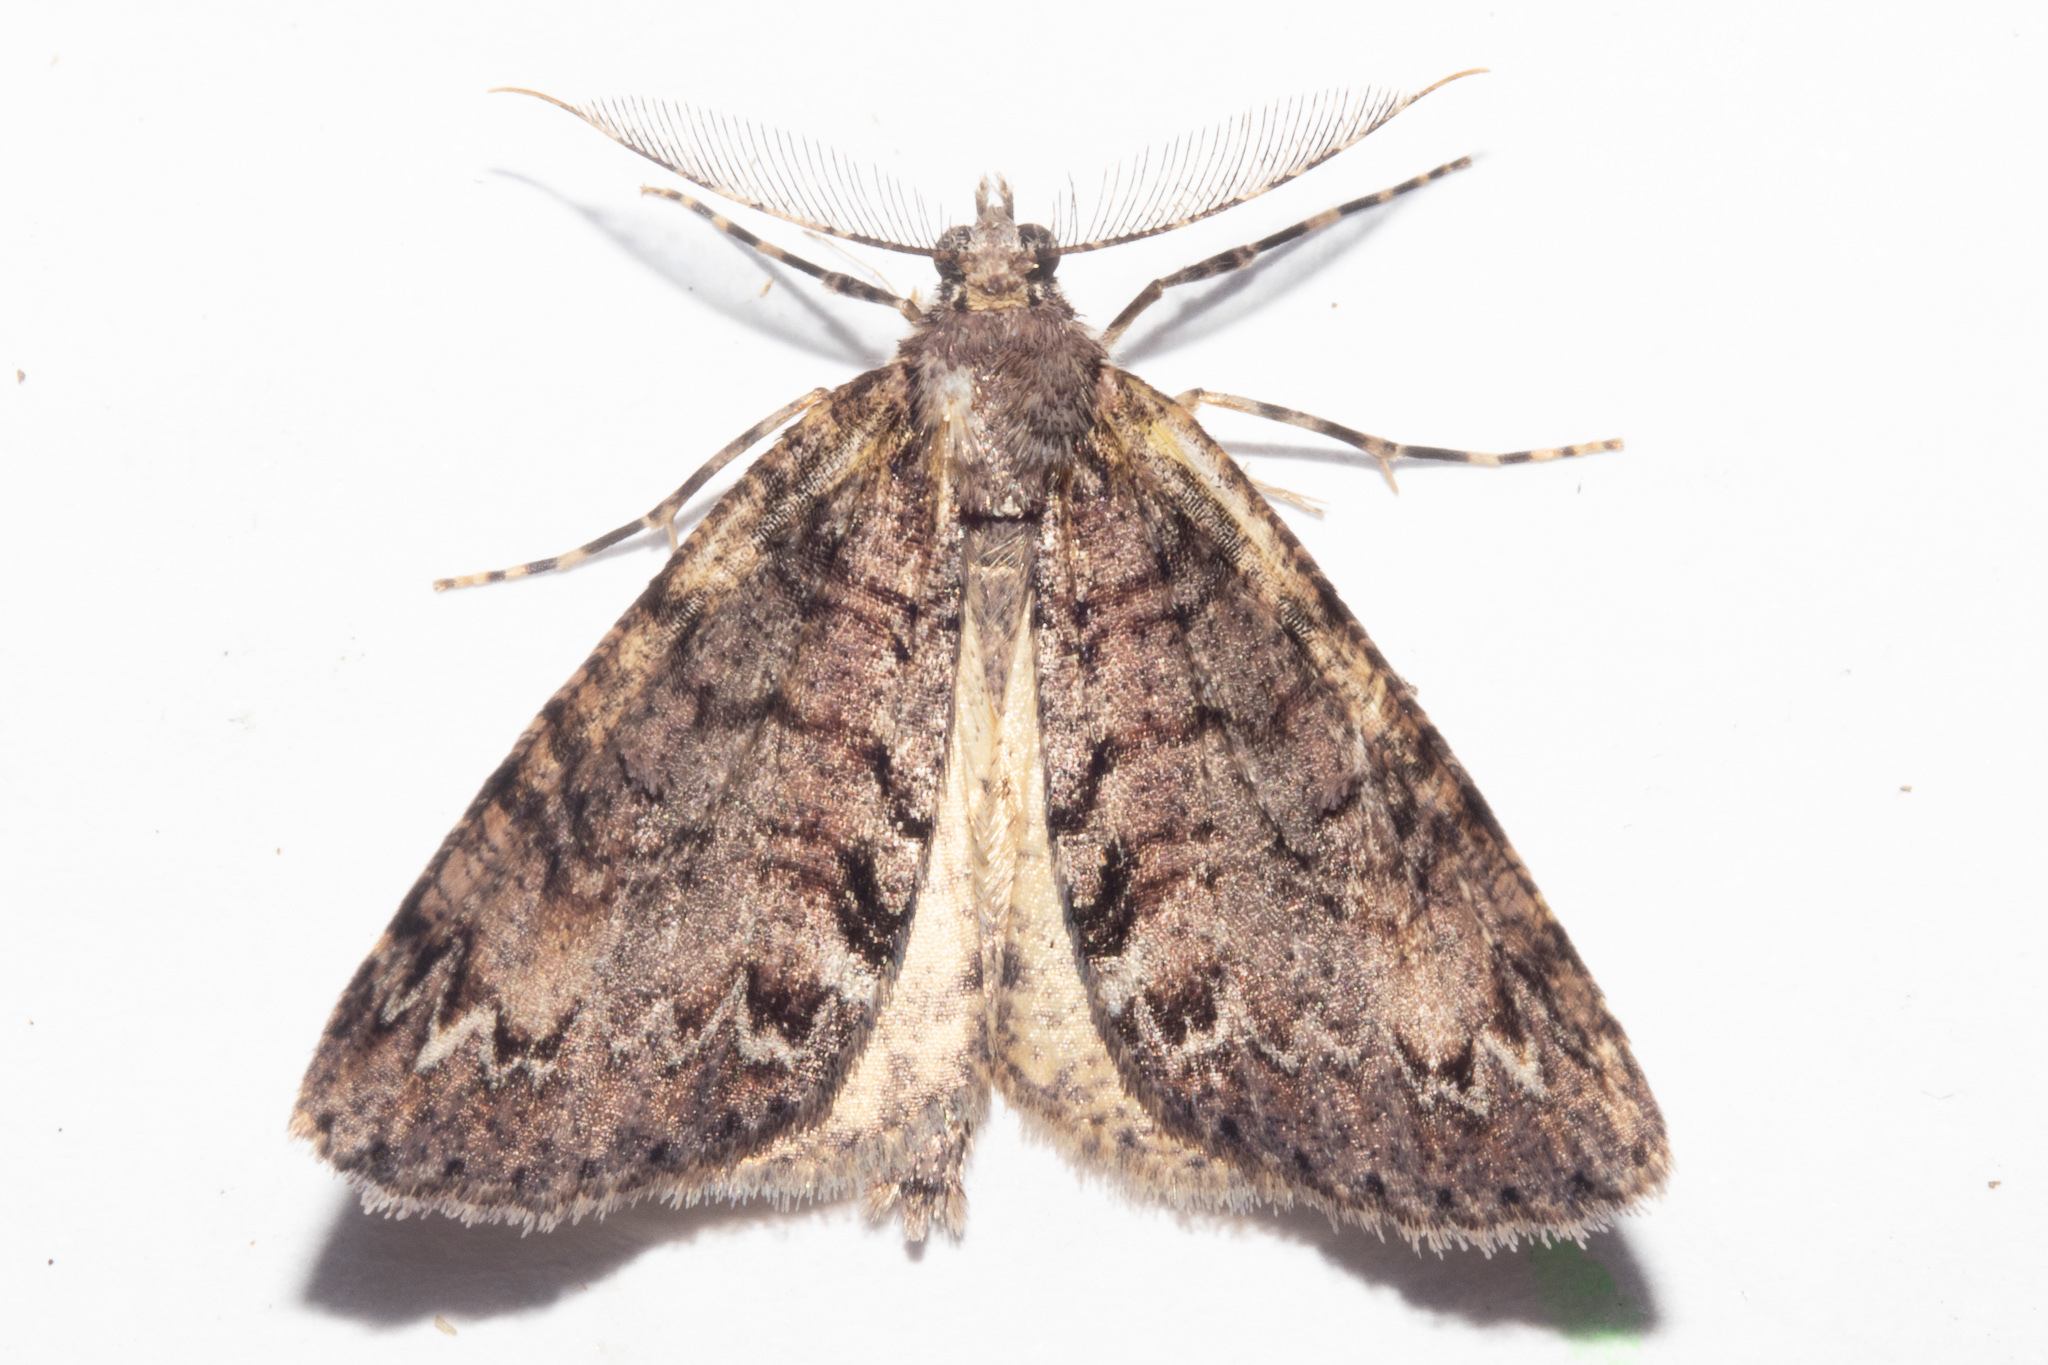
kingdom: Animalia
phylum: Arthropoda
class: Insecta
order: Lepidoptera
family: Geometridae
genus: Pseudocoremia
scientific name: Pseudocoremia suavis
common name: Common forest looper
